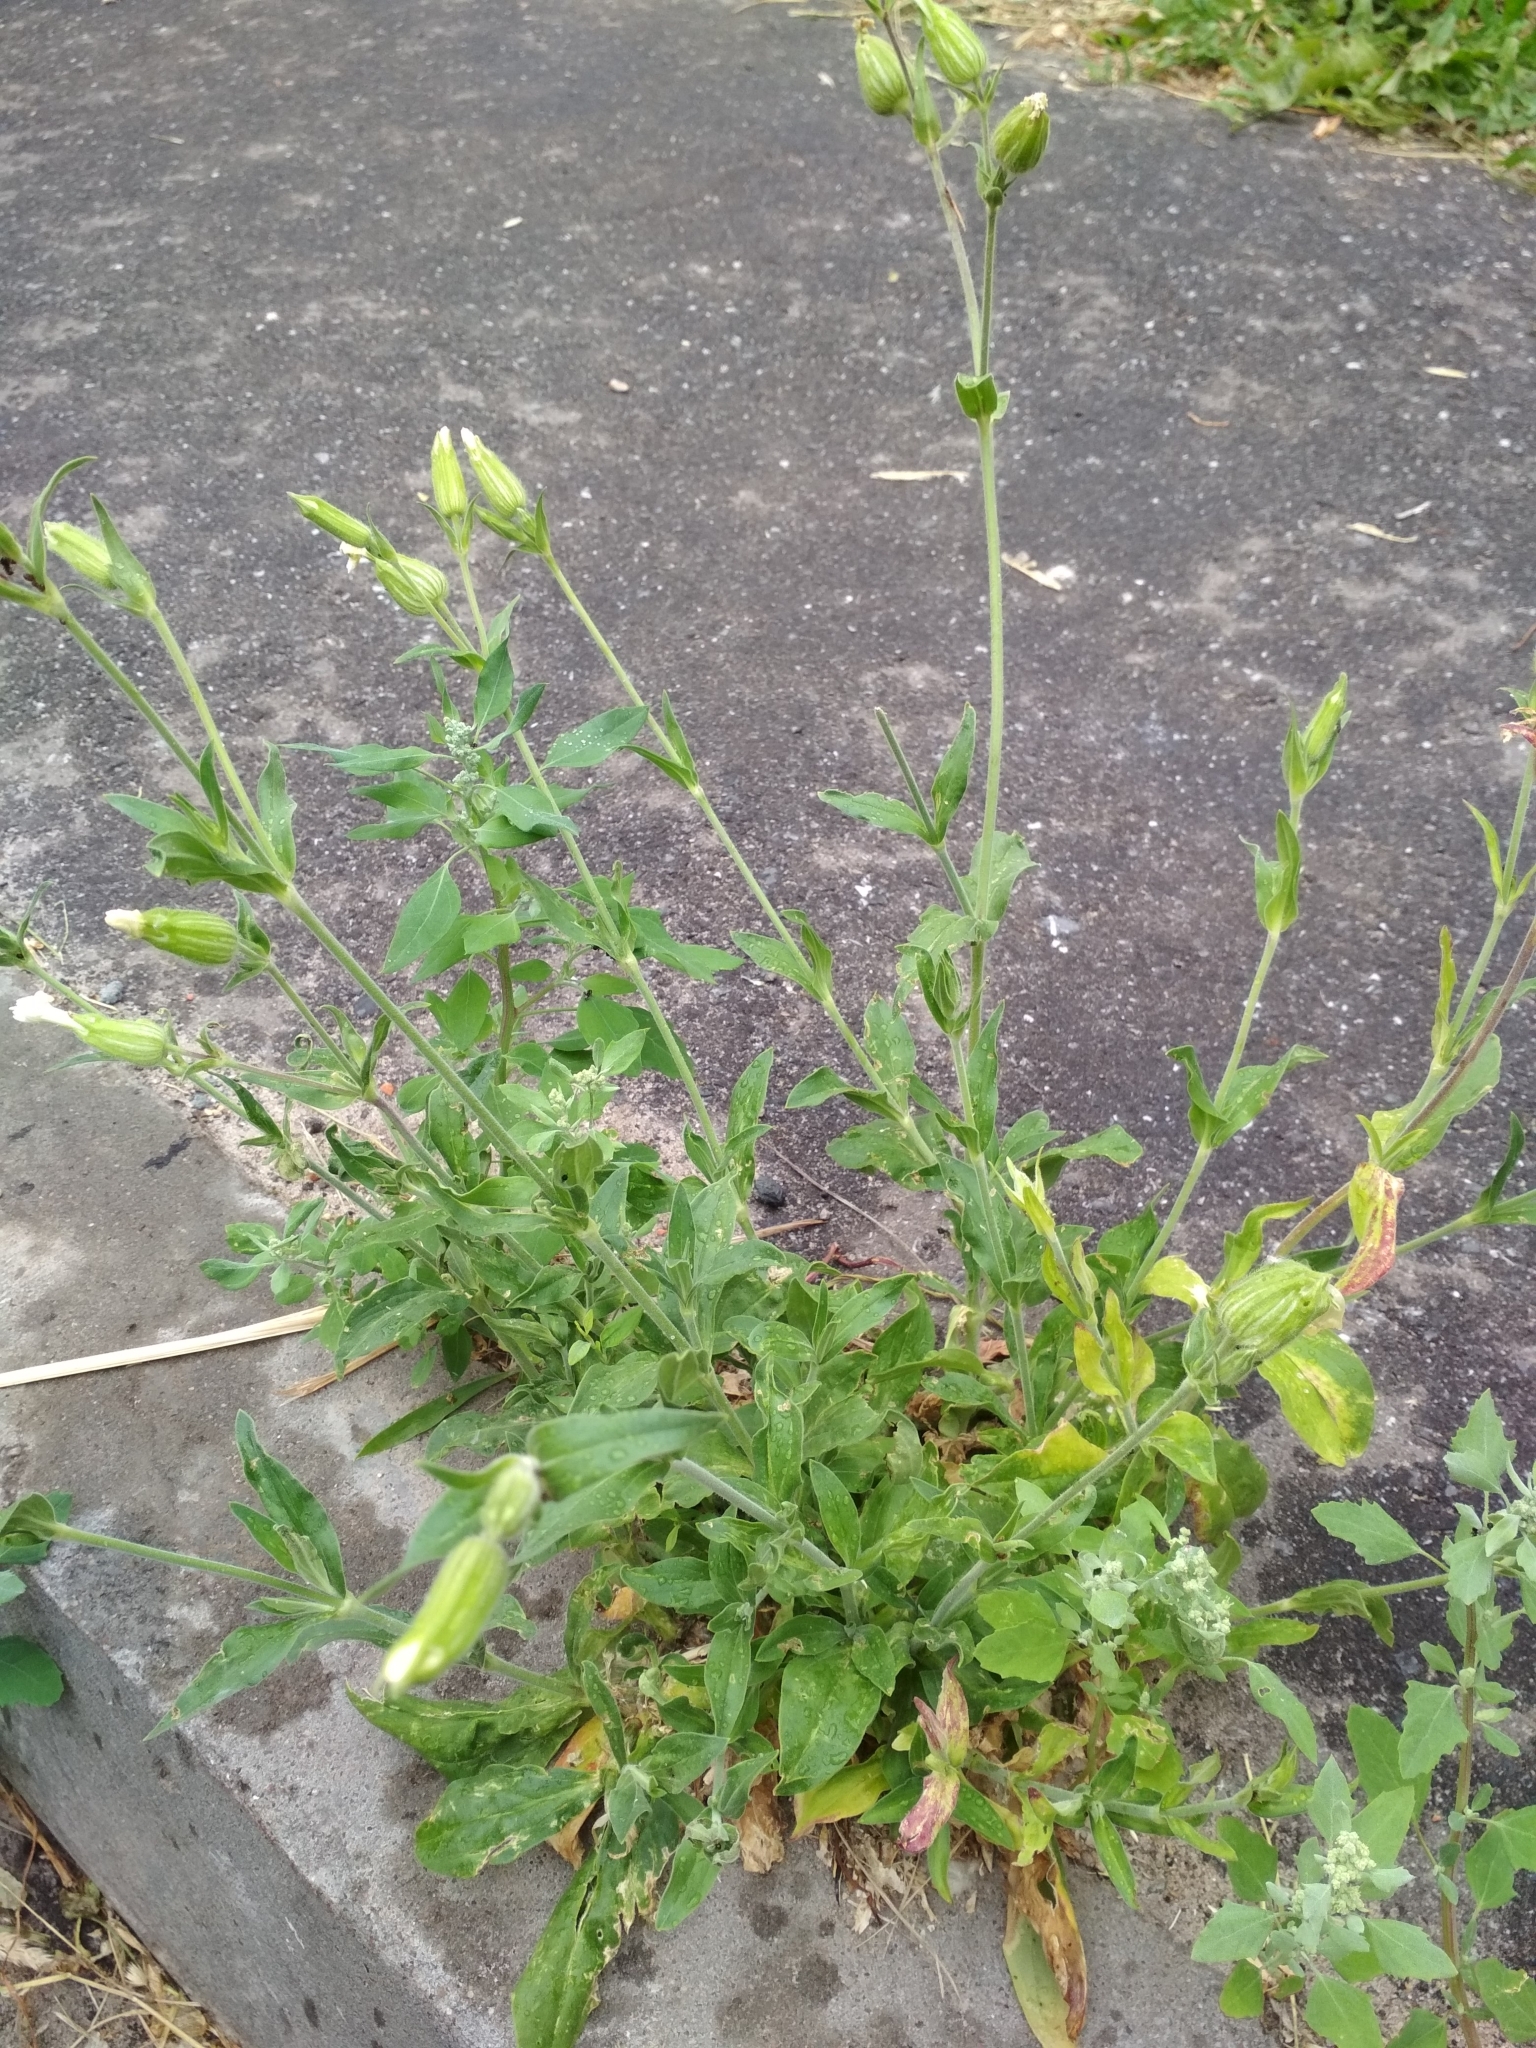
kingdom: Plantae
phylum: Tracheophyta
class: Magnoliopsida
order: Caryophyllales
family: Caryophyllaceae
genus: Silene
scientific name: Silene latifolia
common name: White campion
